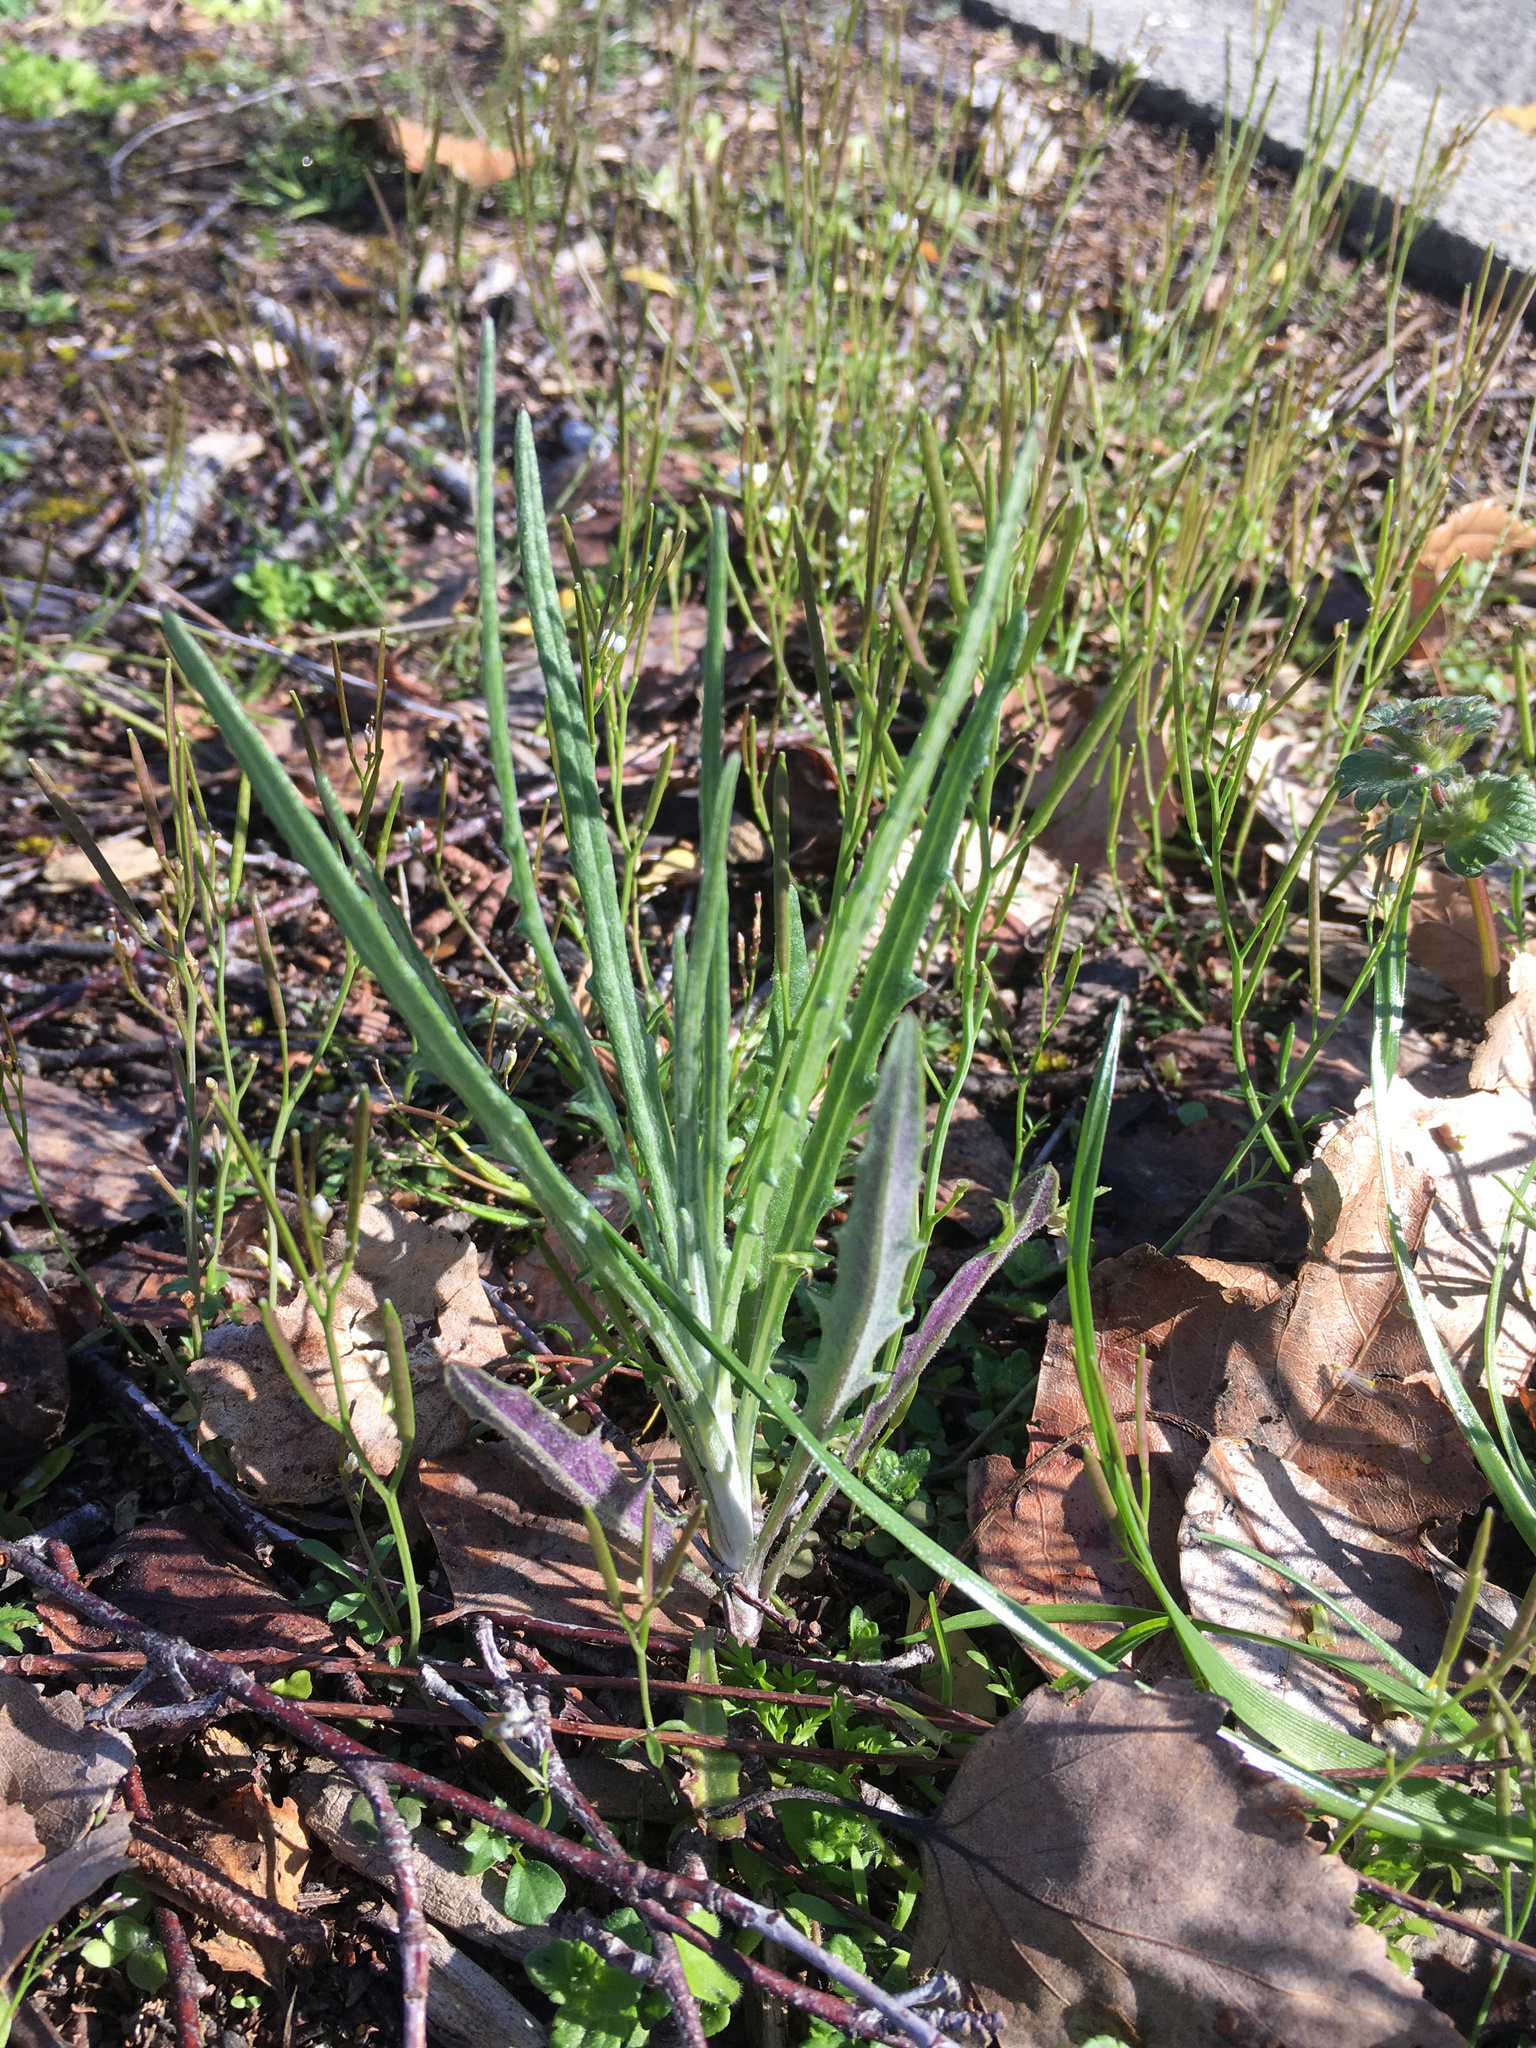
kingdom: Plantae
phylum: Tracheophyta
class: Magnoliopsida
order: Asterales
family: Asteraceae
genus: Senecio
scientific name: Senecio quadridentatus
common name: Cotton fireweed
